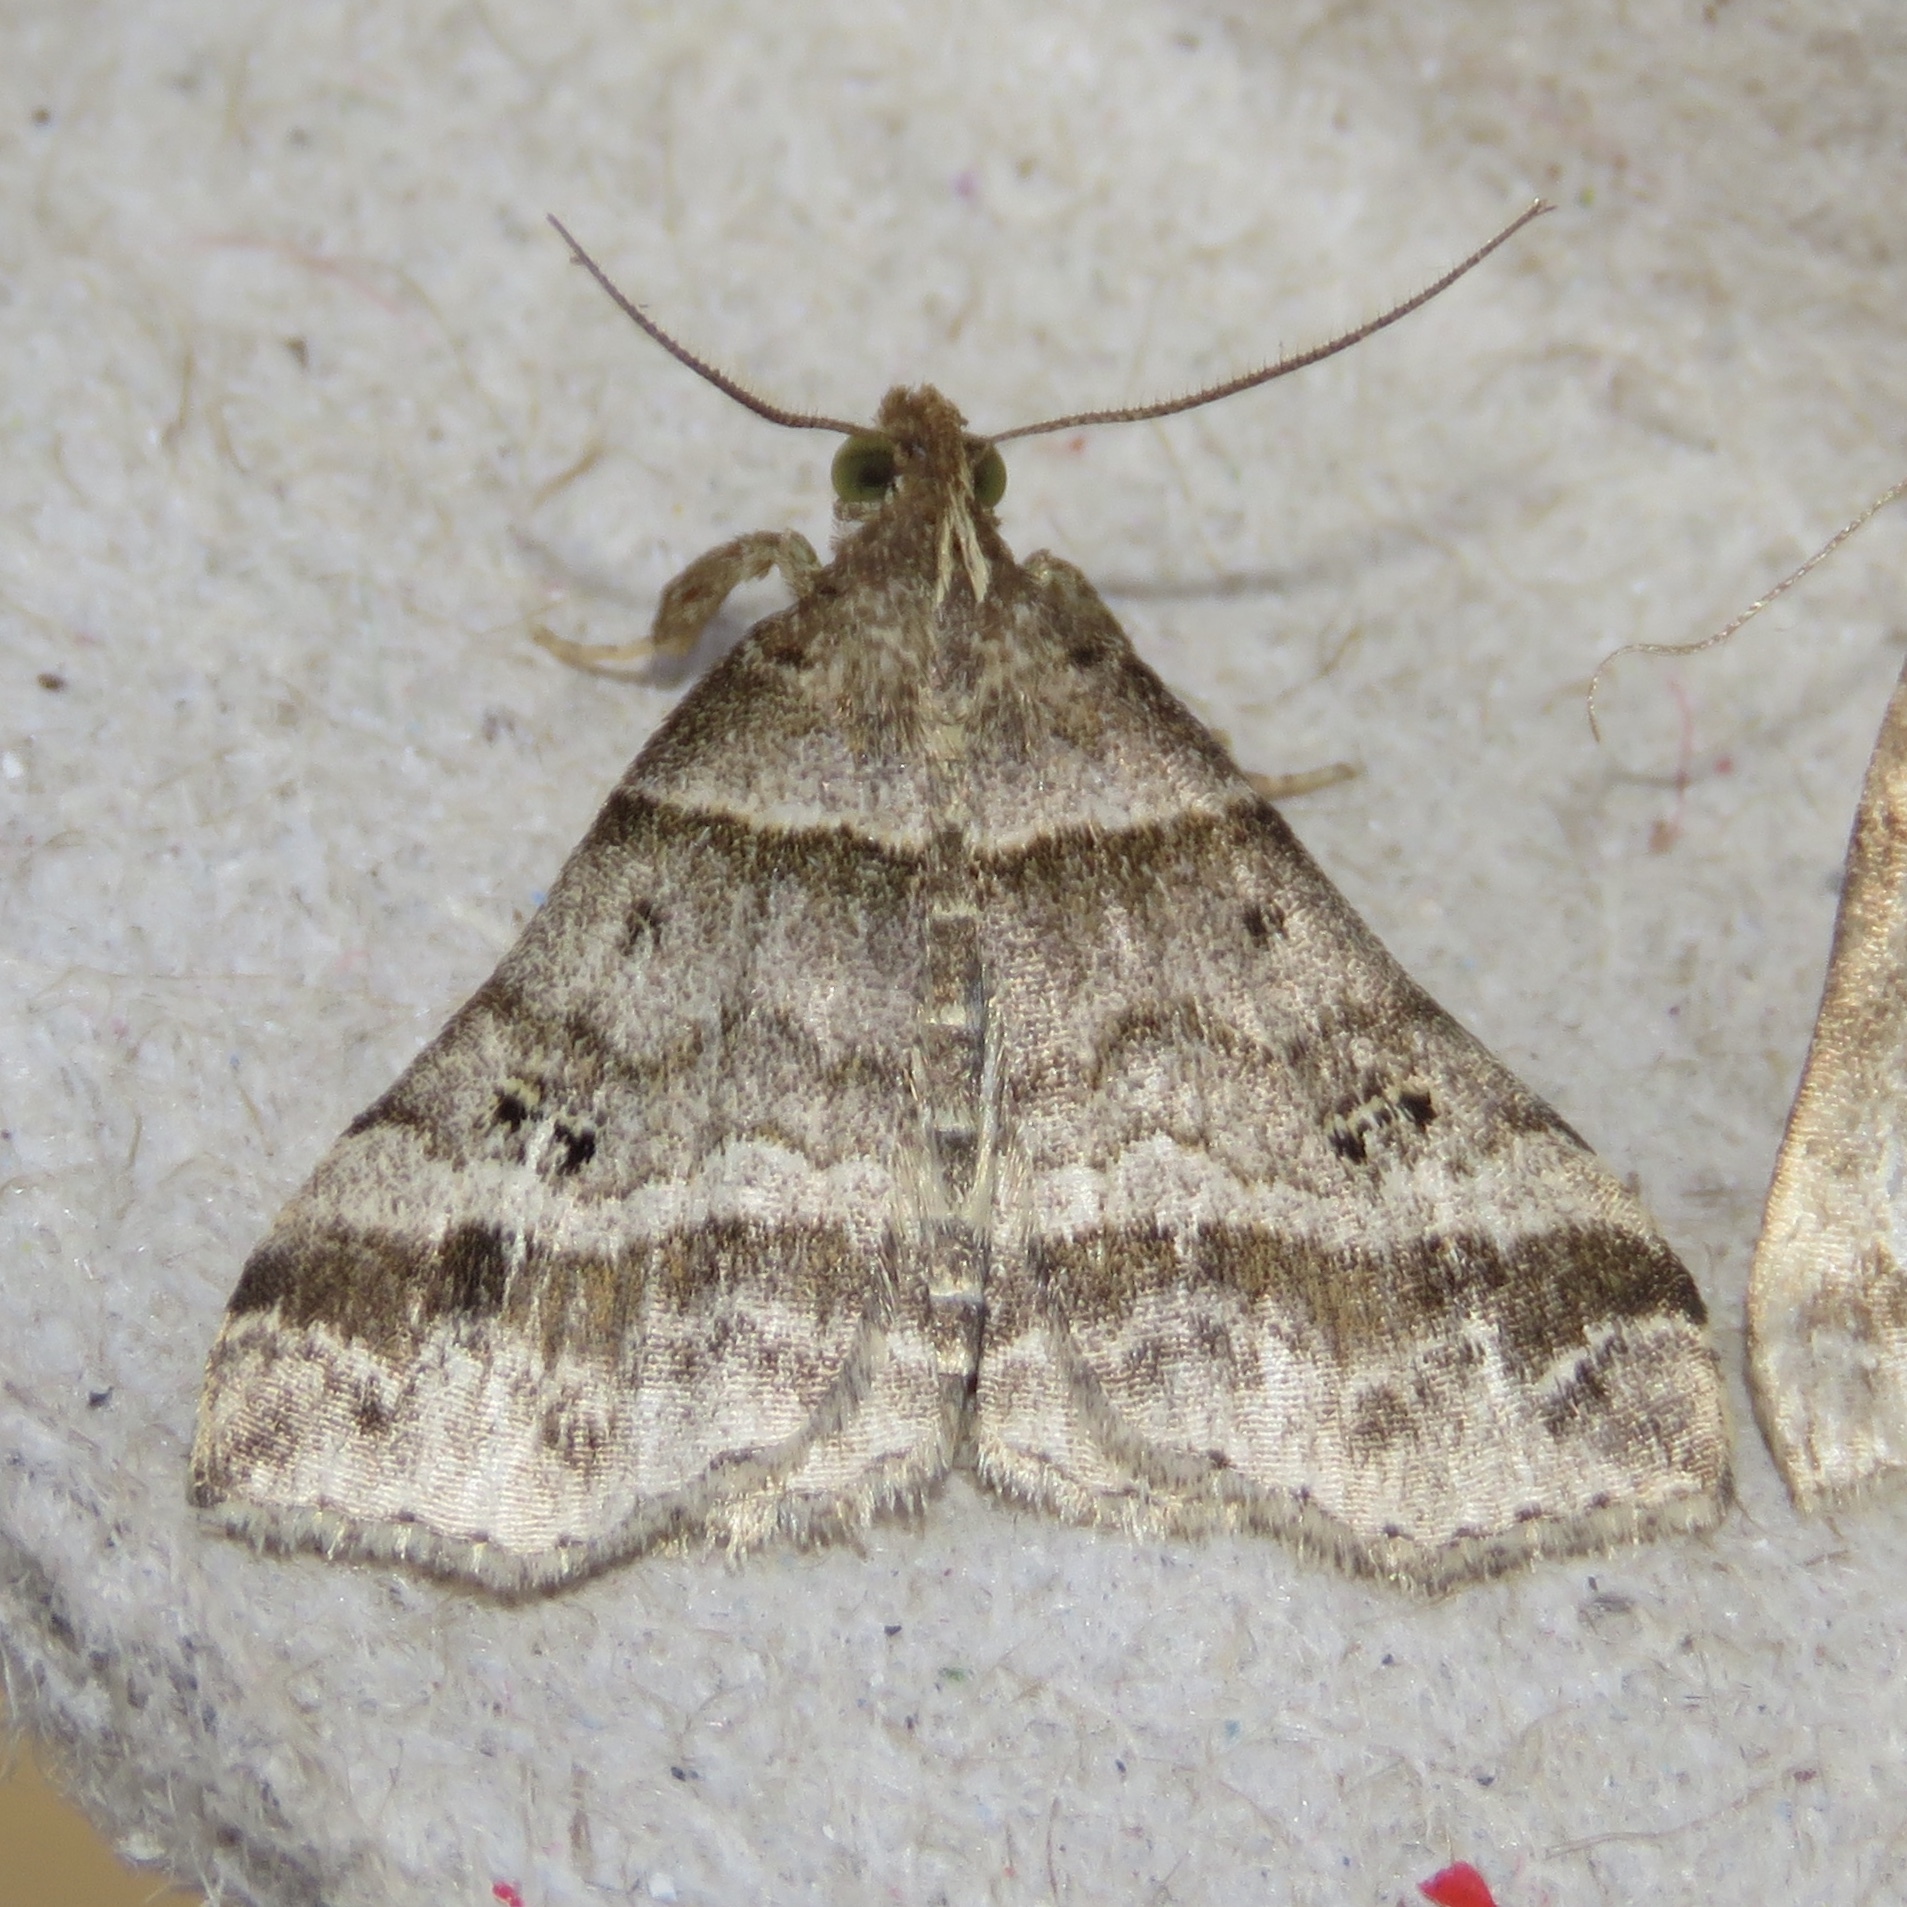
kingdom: Animalia
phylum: Arthropoda
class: Insecta
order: Lepidoptera
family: Erebidae
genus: Phaeolita
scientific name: Phaeolita pyramusalis
